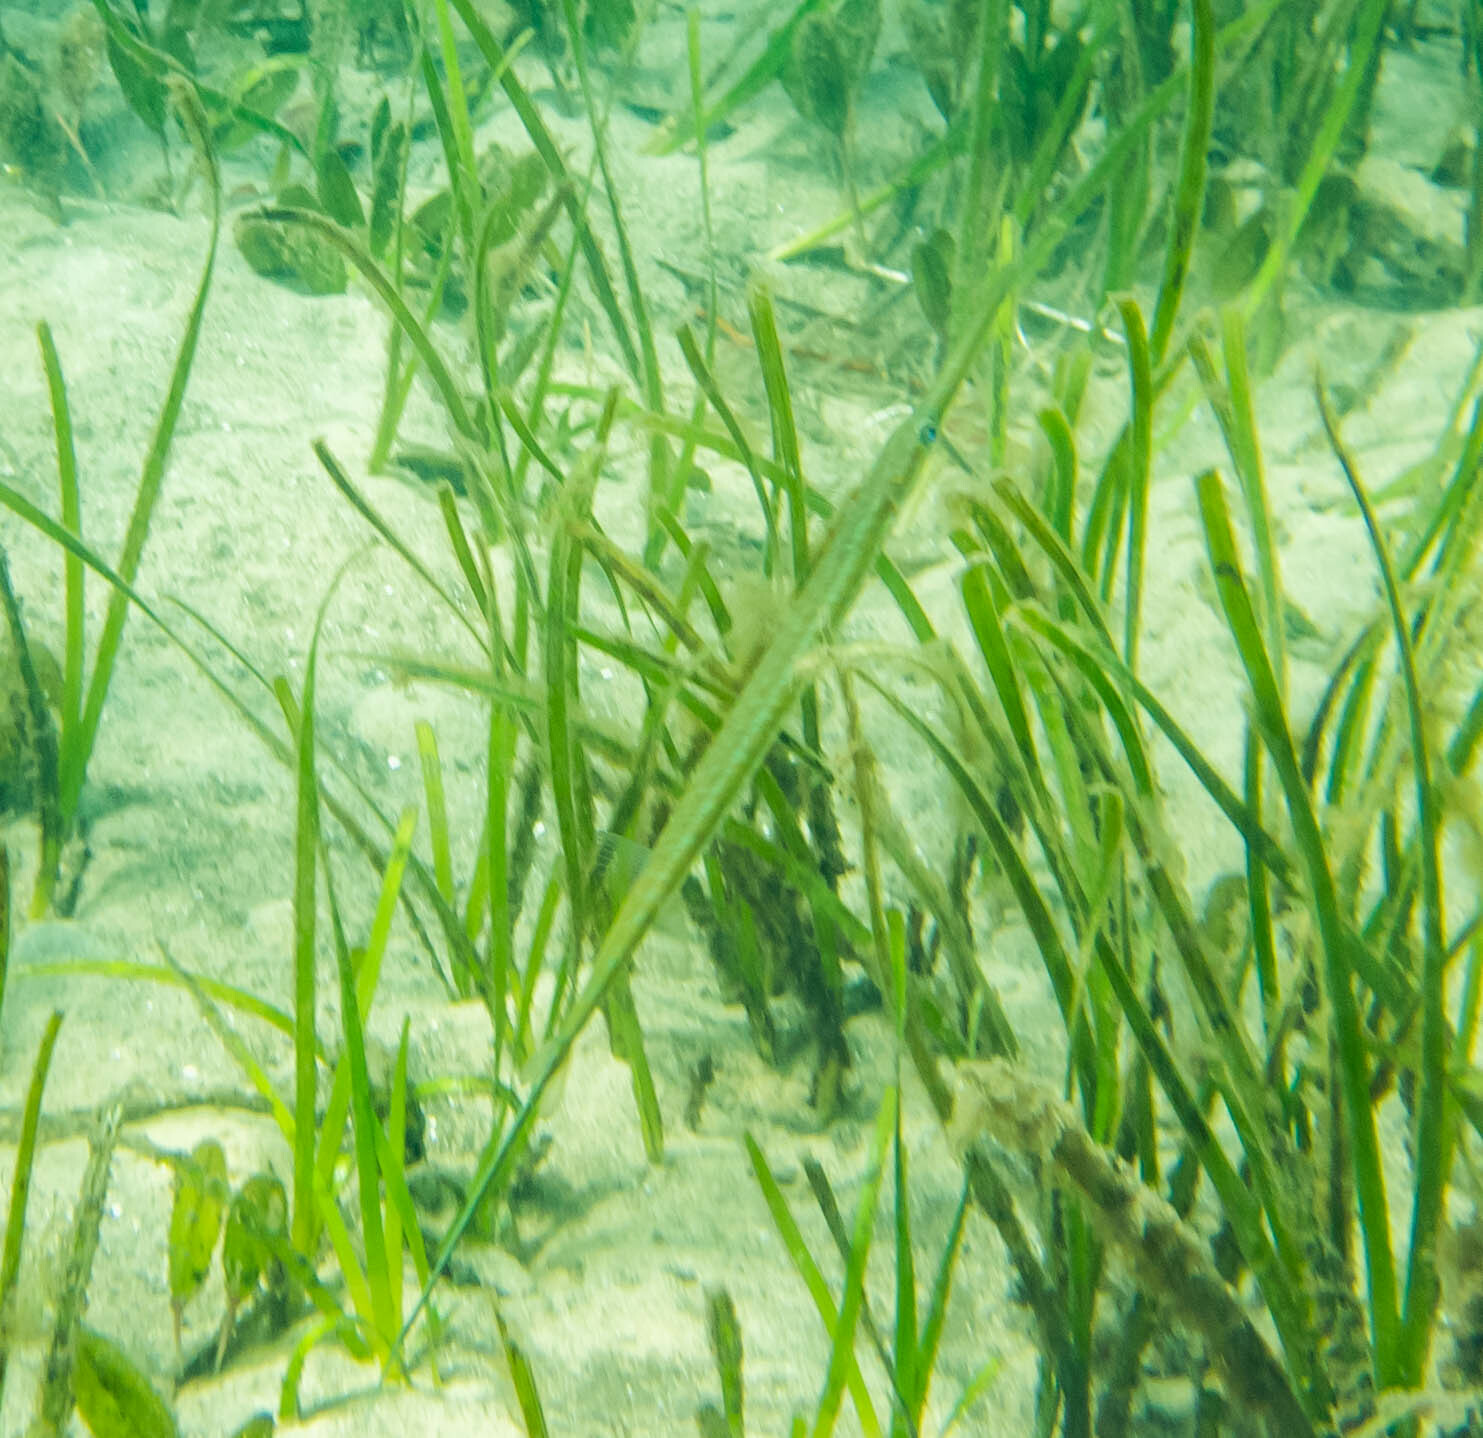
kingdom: Animalia
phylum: Chordata
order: Syngnathiformes
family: Fistulariidae
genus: Fistularia
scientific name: Fistularia commersonii
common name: Bluespotted cornetfish
